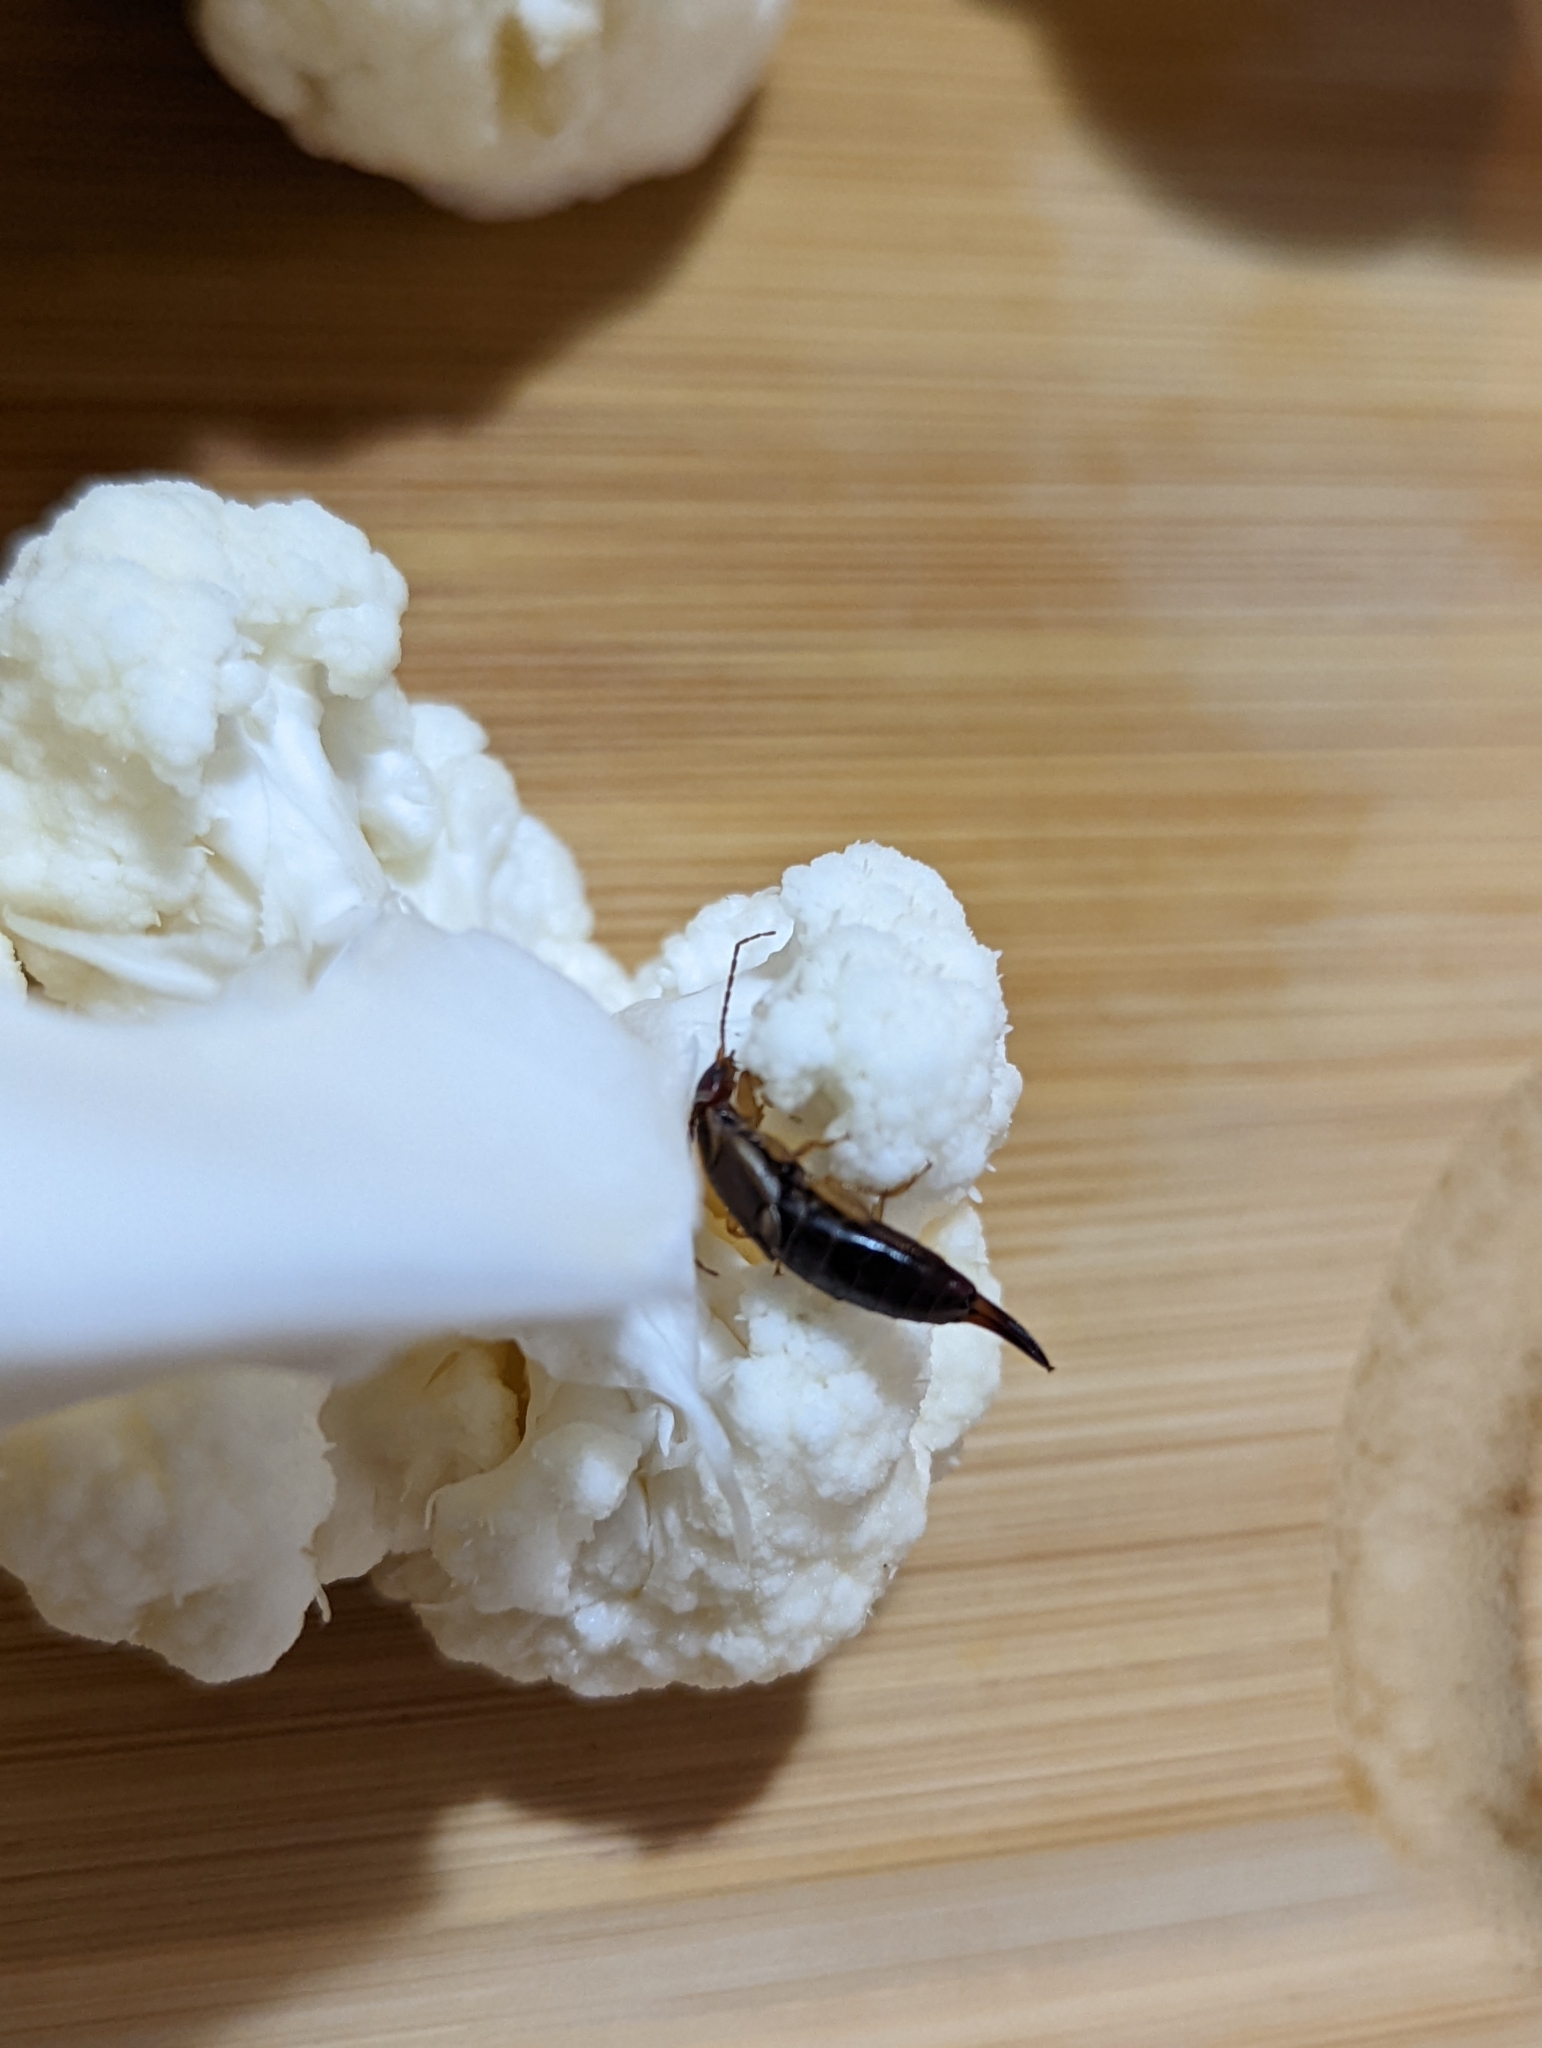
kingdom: Animalia
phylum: Arthropoda
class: Insecta
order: Dermaptera
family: Forficulidae
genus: Forficula
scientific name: Forficula
